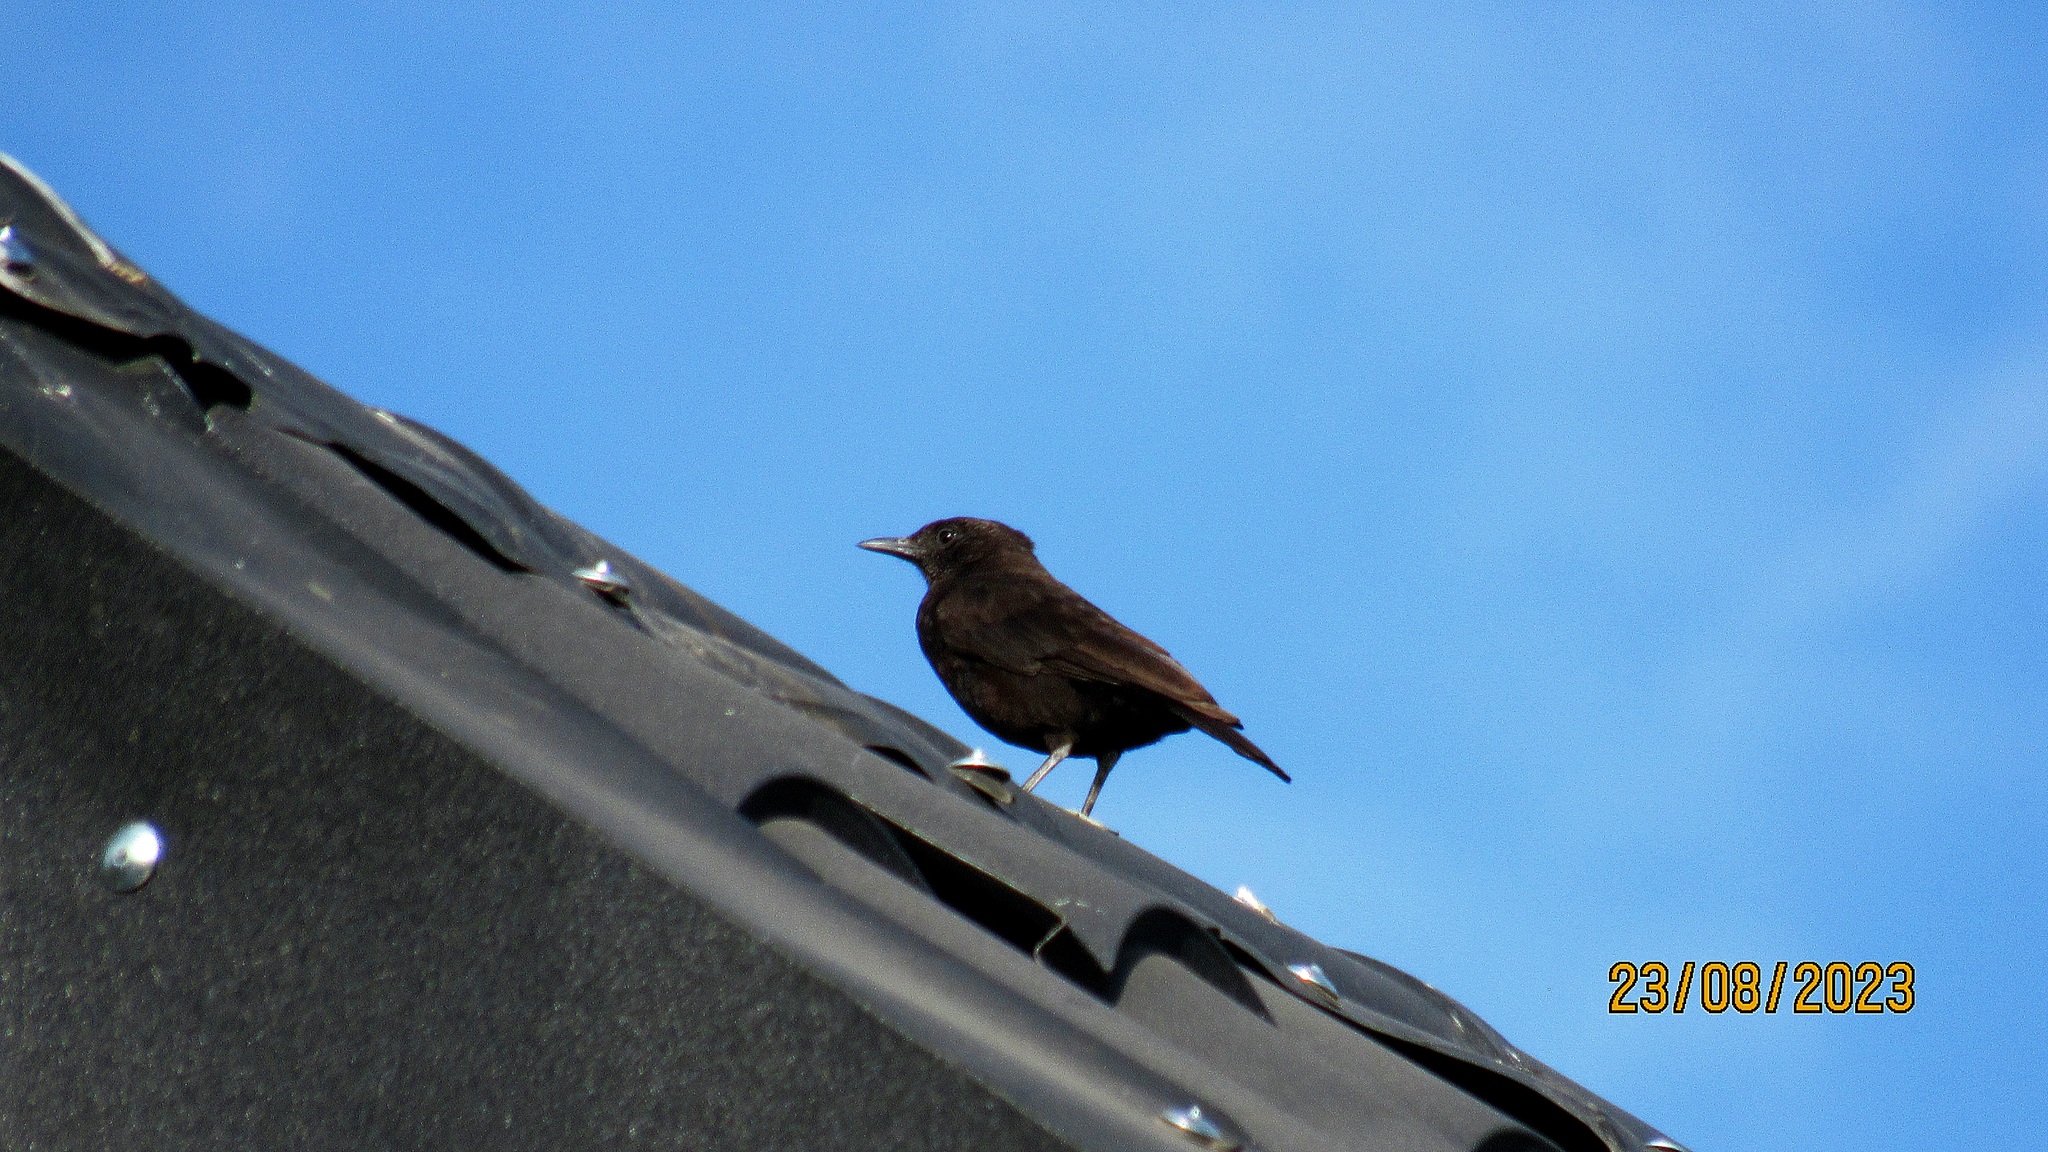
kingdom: Animalia
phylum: Chordata
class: Aves
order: Passeriformes
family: Muscicapidae
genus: Myrmecocichla
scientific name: Myrmecocichla aethiops
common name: Anteater chat
